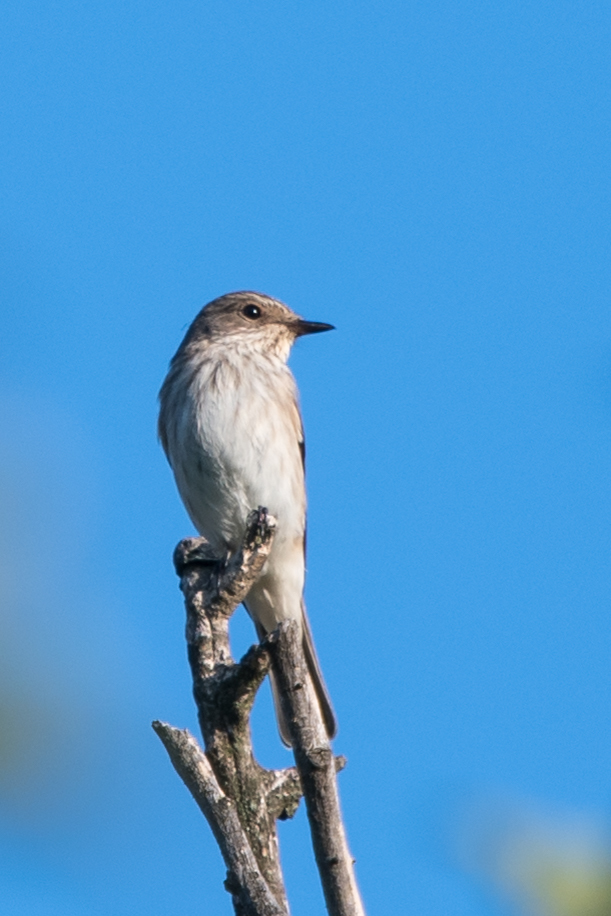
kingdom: Animalia
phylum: Chordata
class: Aves
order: Passeriformes
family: Muscicapidae
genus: Muscicapa
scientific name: Muscicapa striata
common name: Spotted flycatcher
